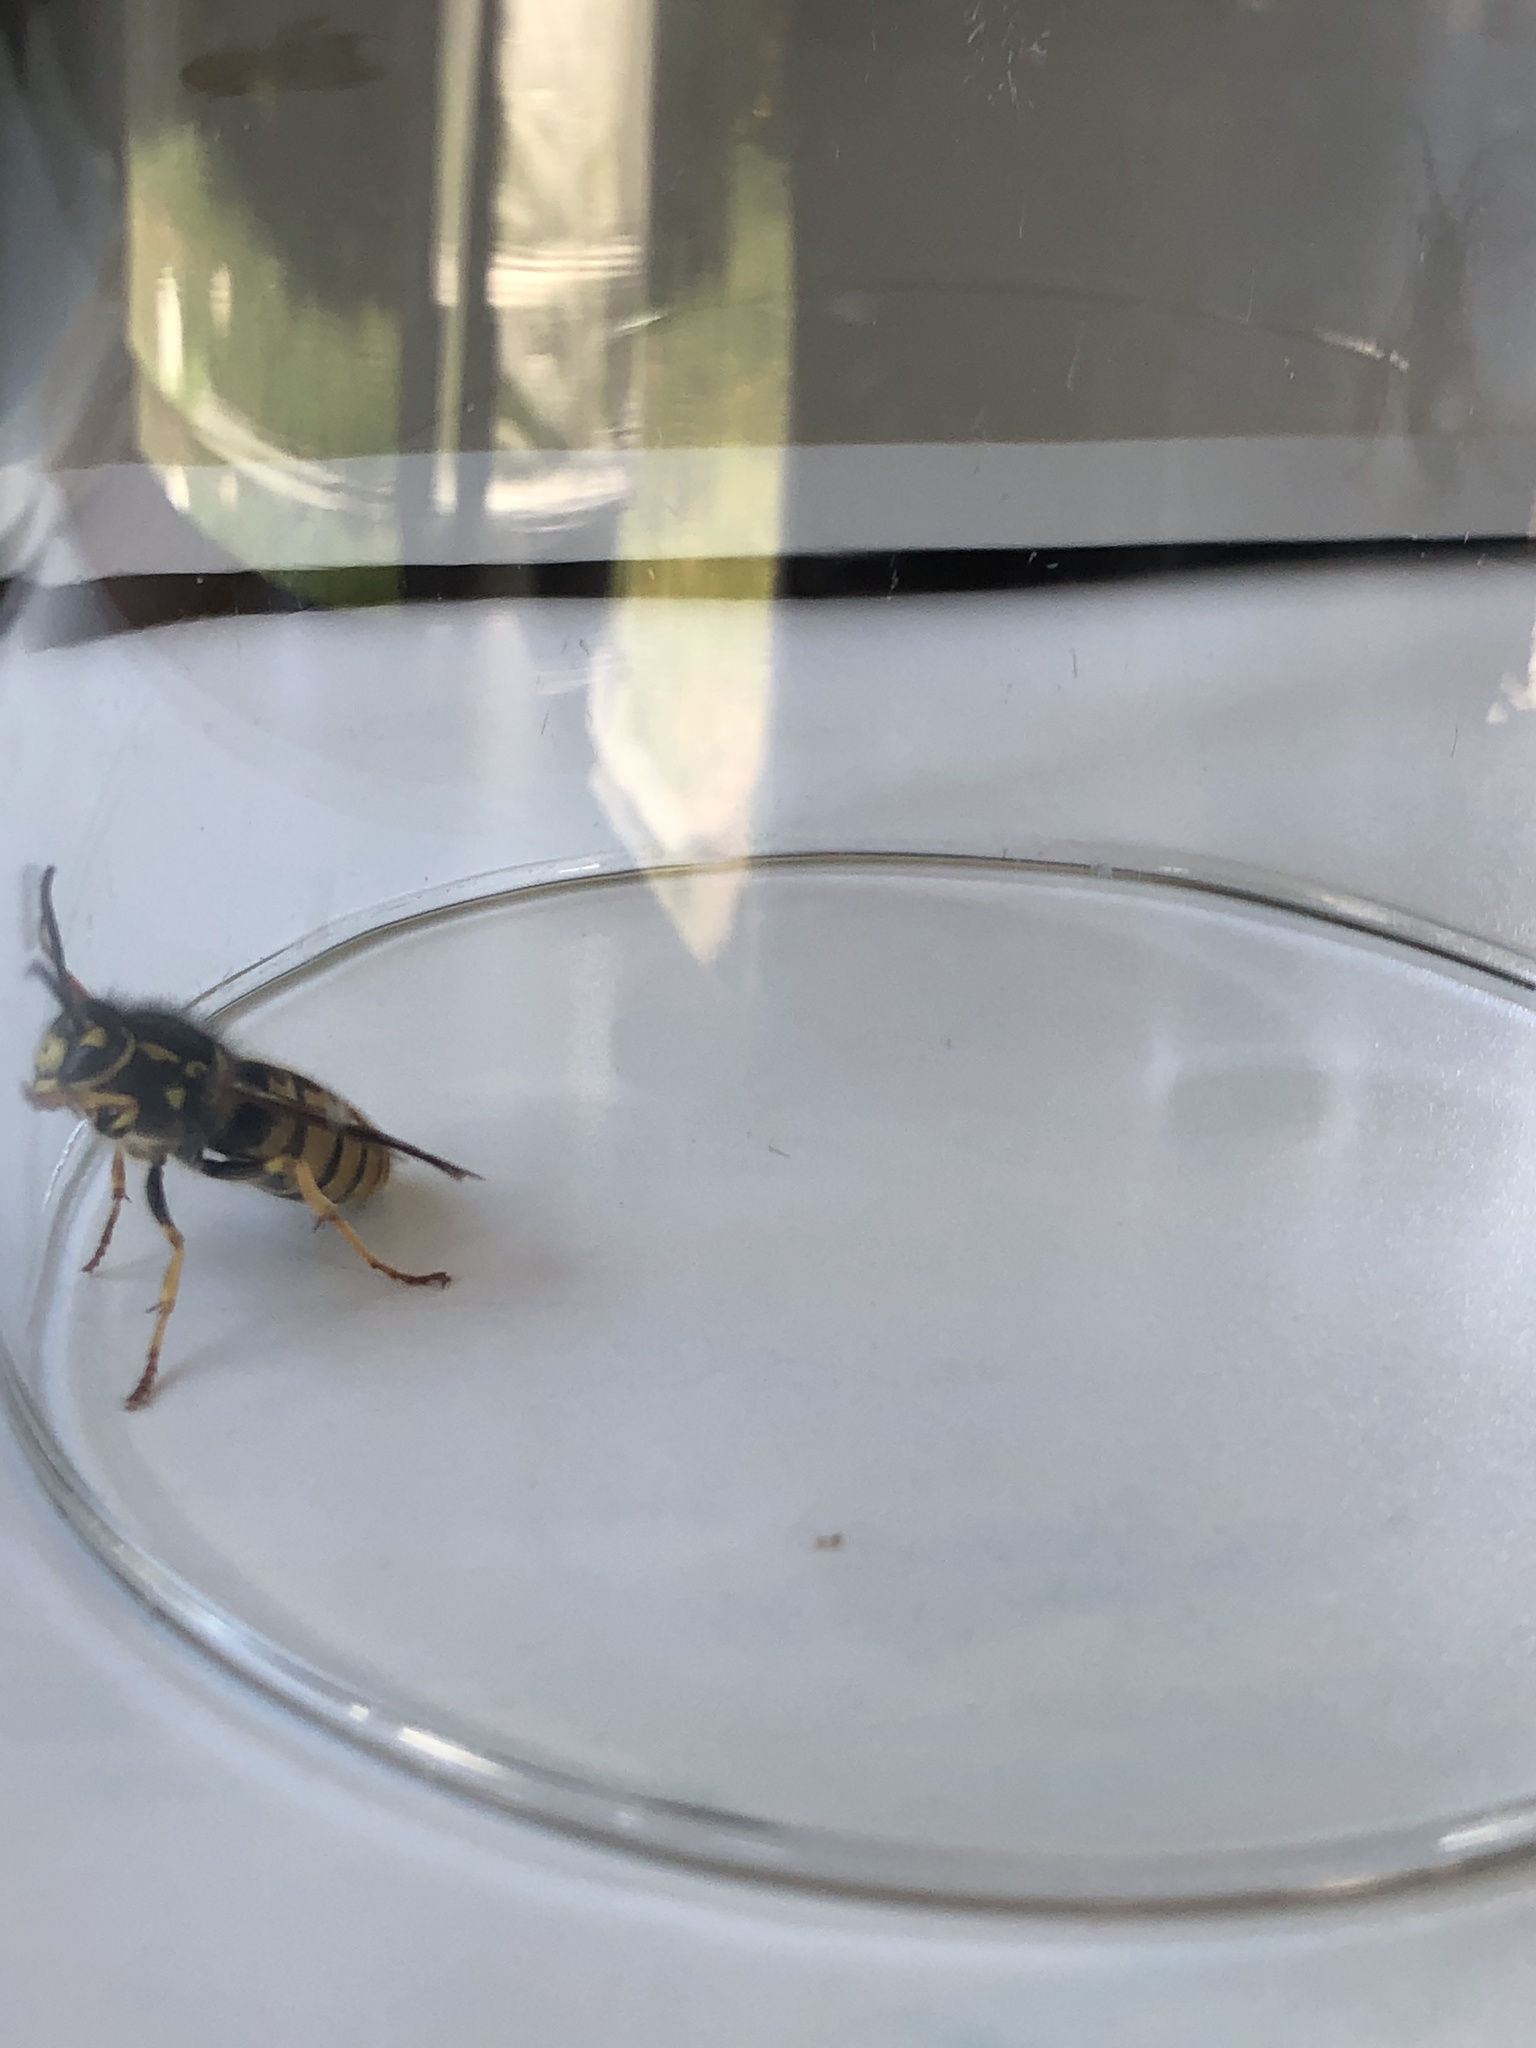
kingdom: Animalia
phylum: Arthropoda
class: Insecta
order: Hymenoptera
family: Vespidae
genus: Vespula
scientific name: Vespula germanica
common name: German wasp
